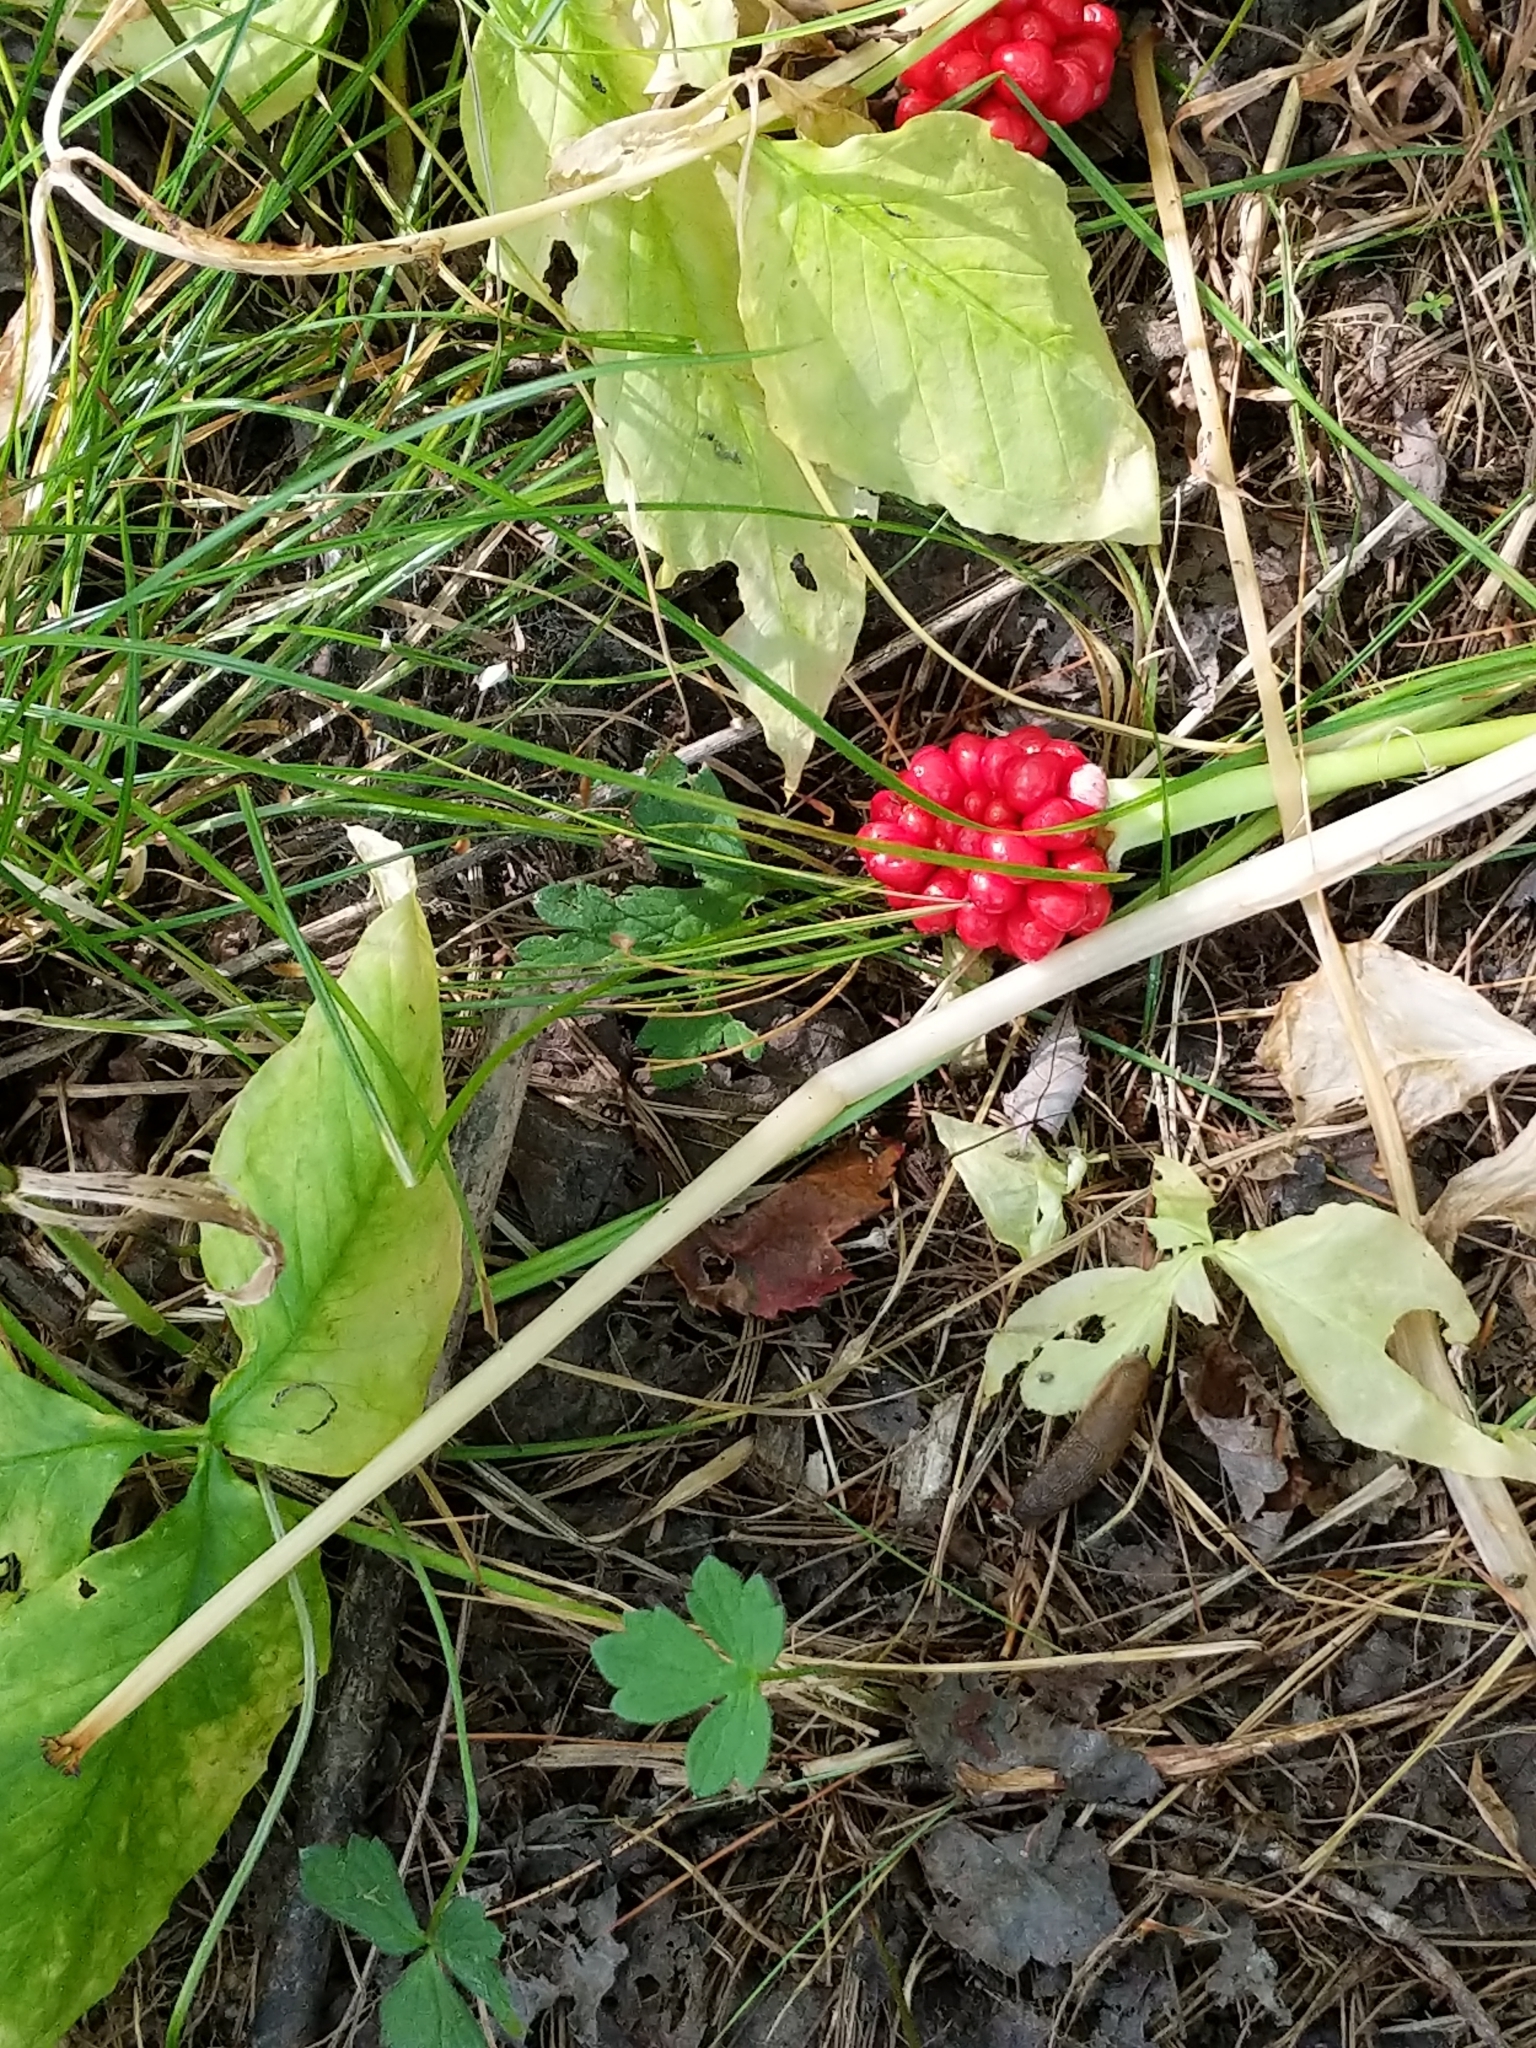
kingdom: Plantae
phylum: Tracheophyta
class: Liliopsida
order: Alismatales
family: Araceae
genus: Arisaema
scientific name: Arisaema triphyllum
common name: Jack-in-the-pulpit
